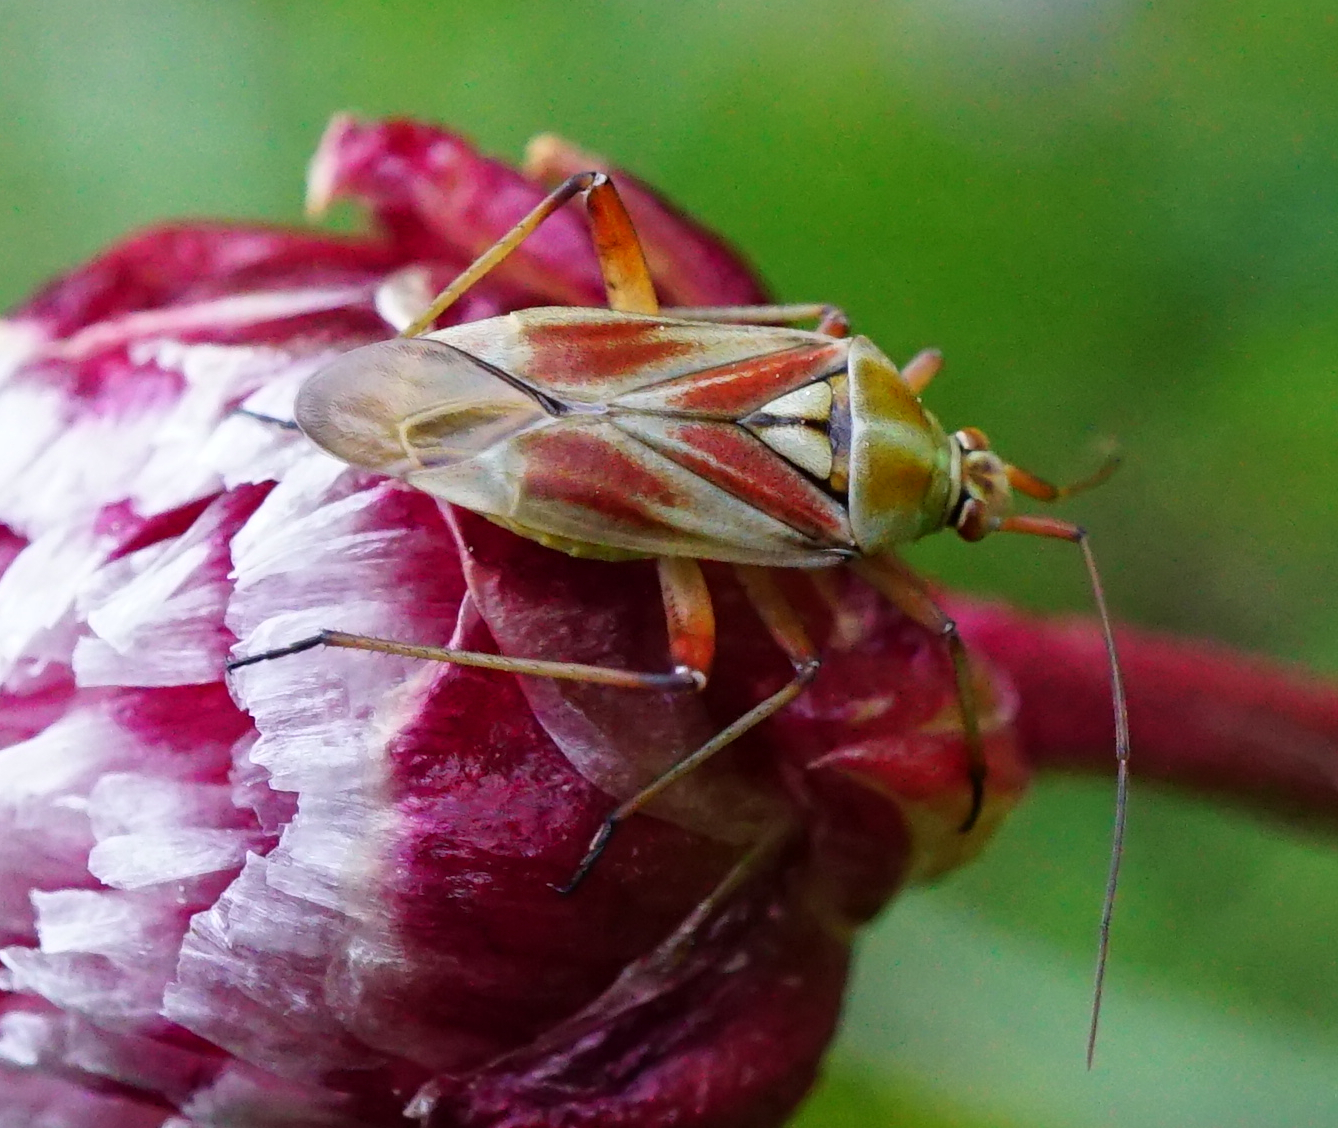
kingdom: Animalia
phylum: Arthropoda
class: Insecta
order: Hemiptera
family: Miridae
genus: Calocoris
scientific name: Calocoris roseomaculatus
